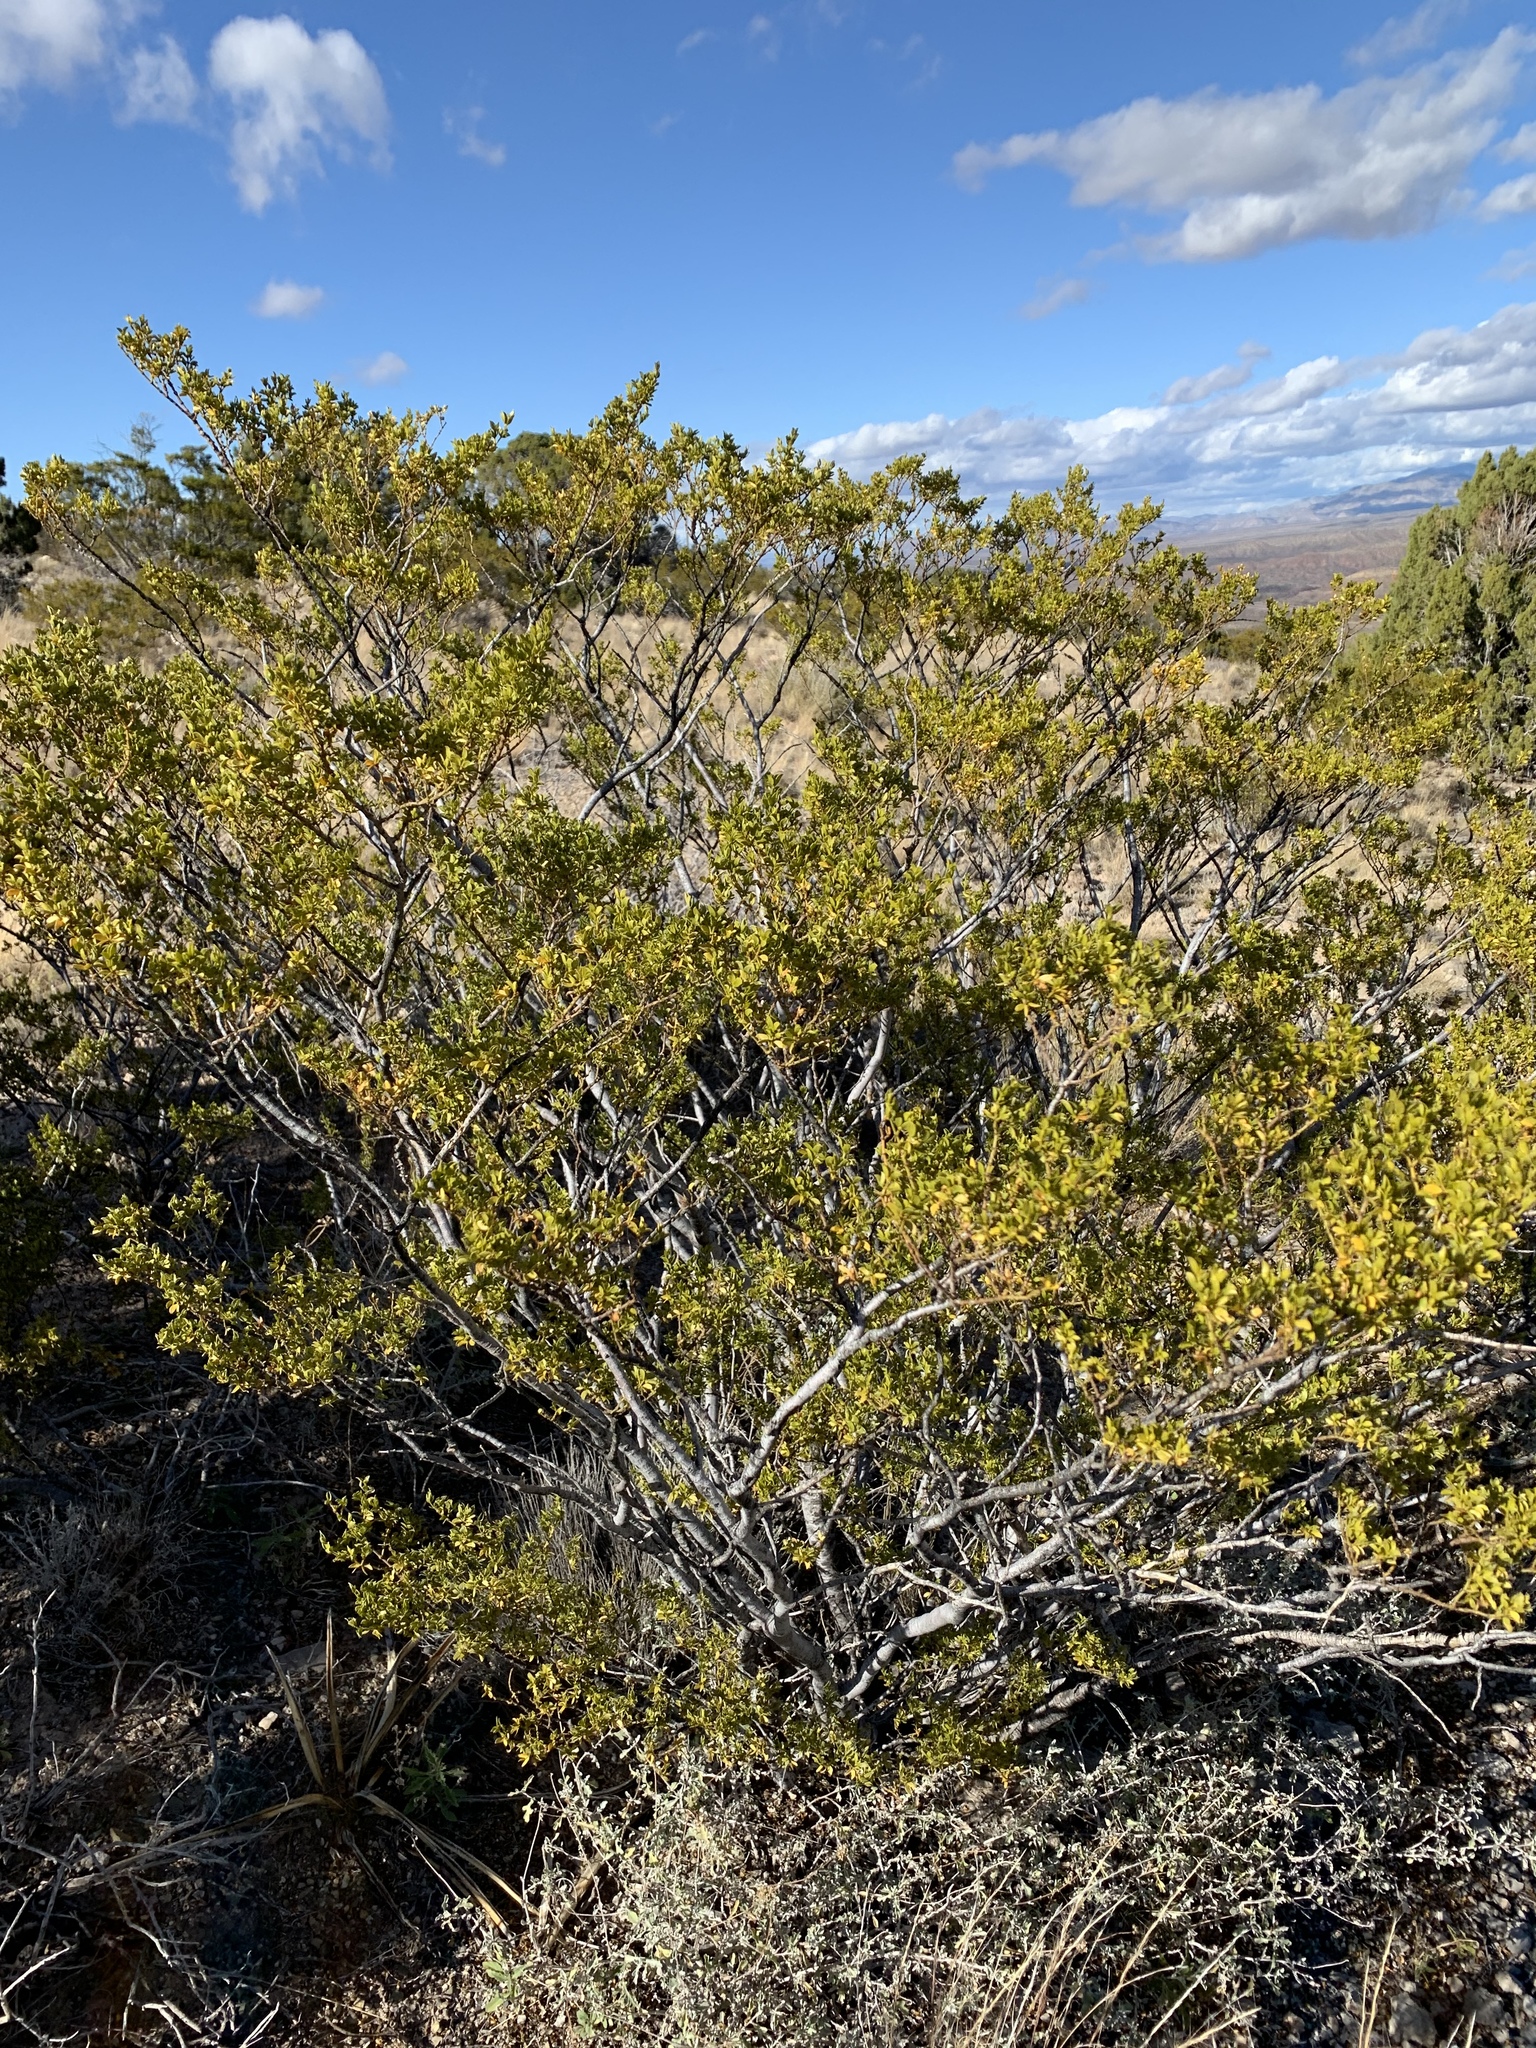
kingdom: Plantae
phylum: Tracheophyta
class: Magnoliopsida
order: Zygophyllales
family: Zygophyllaceae
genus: Larrea
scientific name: Larrea tridentata
